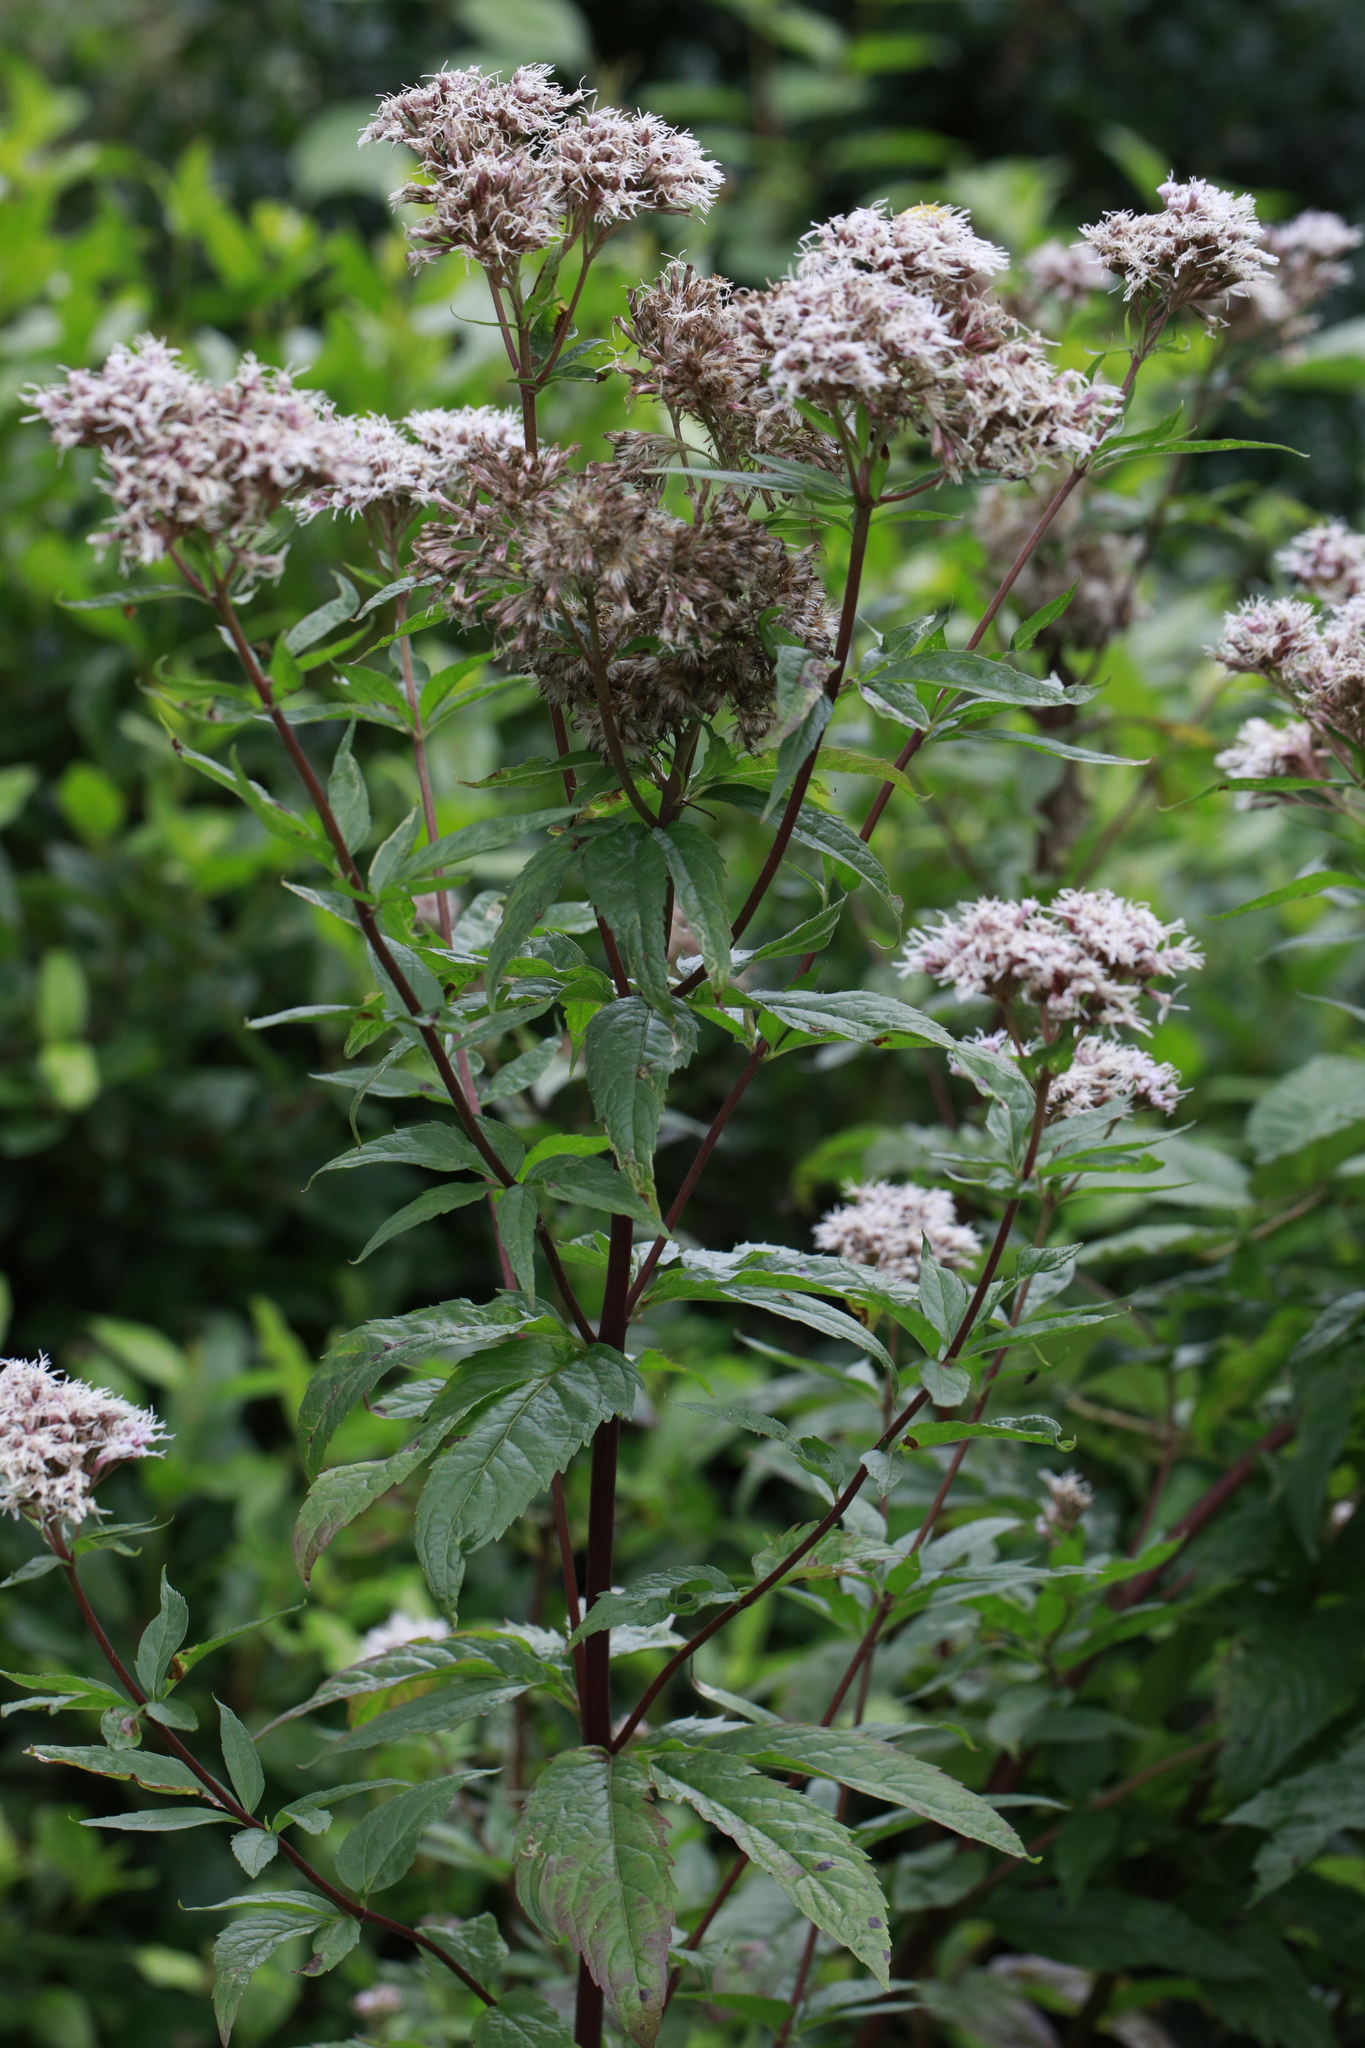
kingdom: Plantae
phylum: Tracheophyta
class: Magnoliopsida
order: Asterales
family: Asteraceae
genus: Eupatorium
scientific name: Eupatorium cannabinum
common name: Hemp-agrimony
